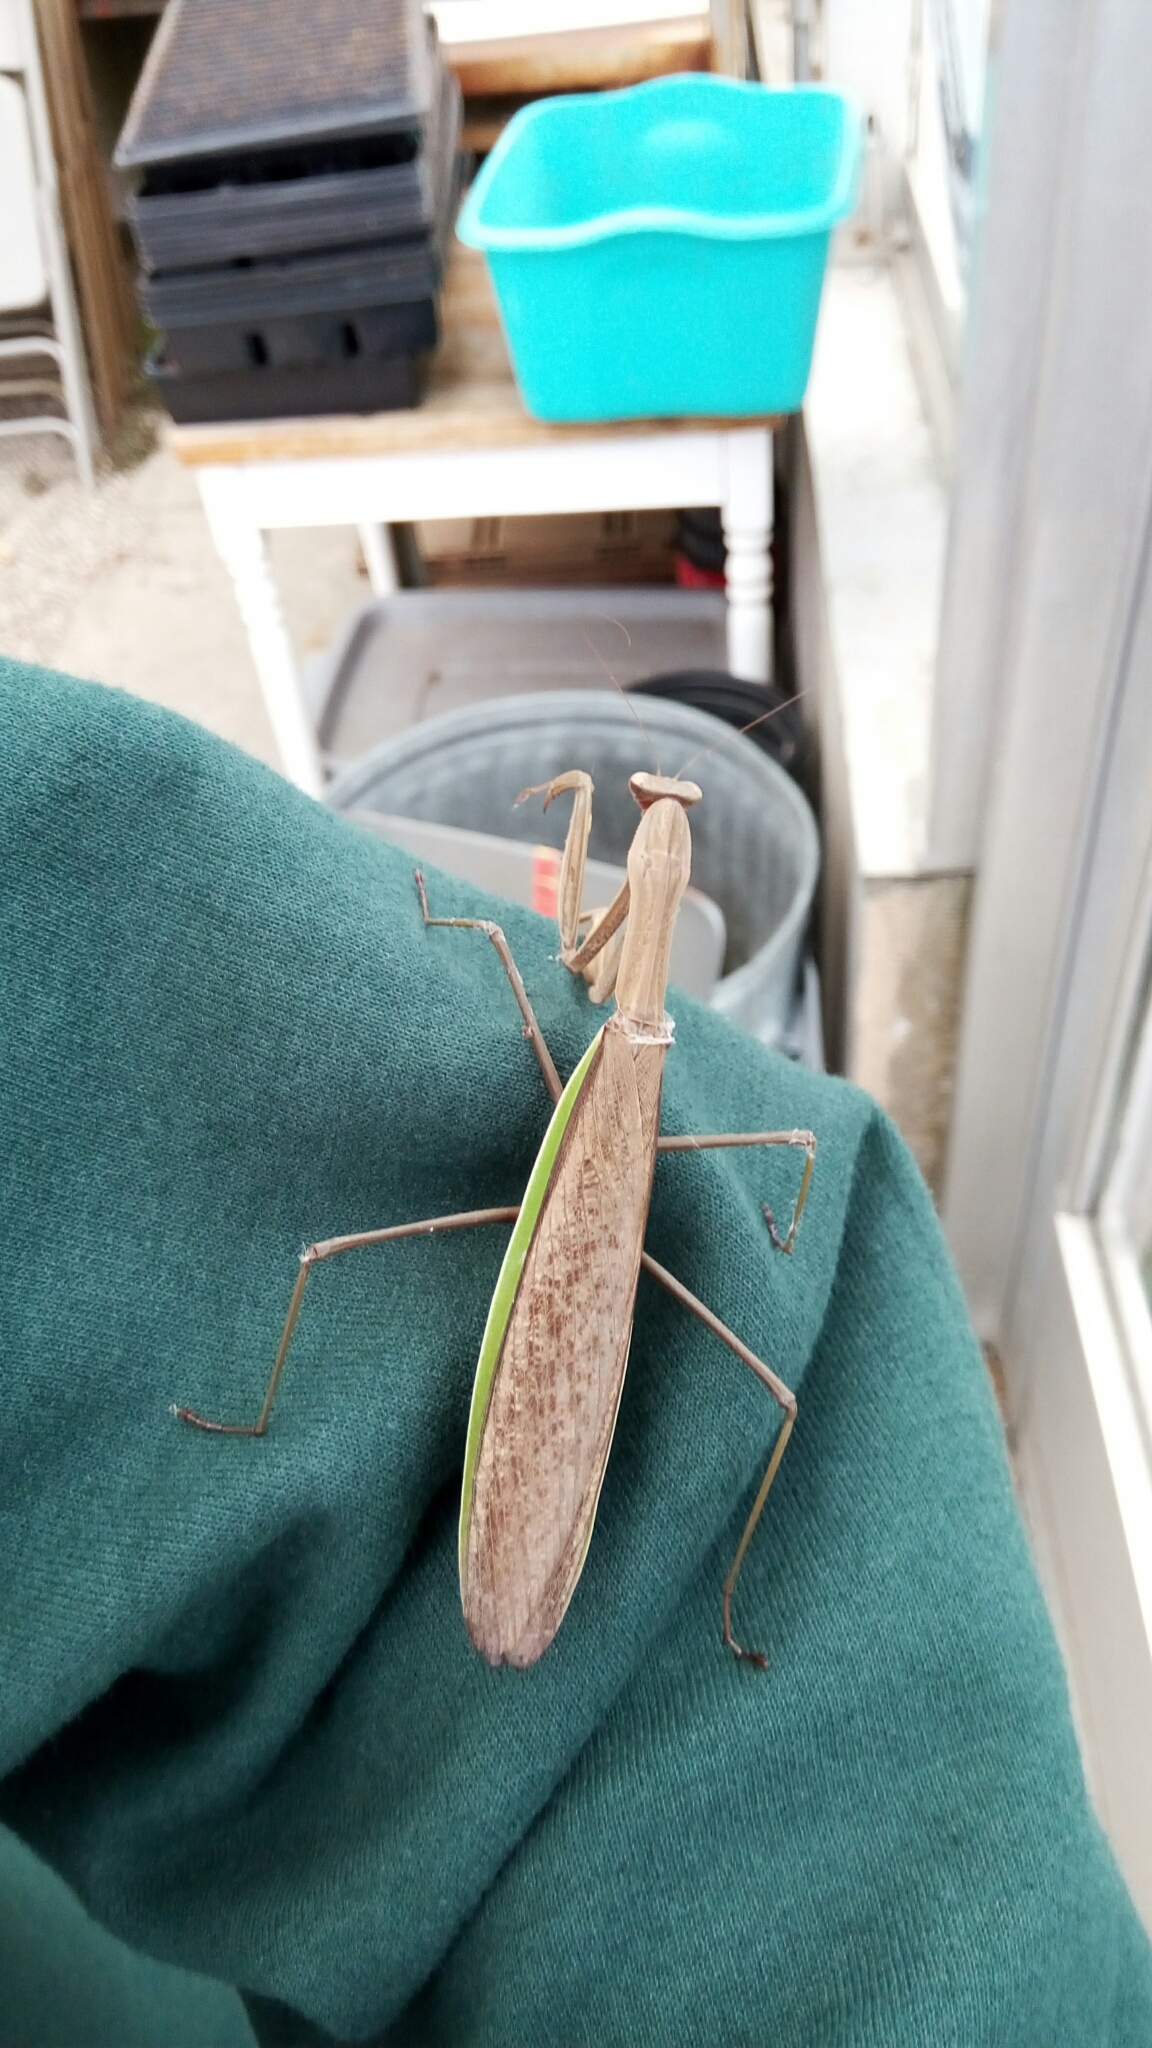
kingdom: Animalia
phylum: Arthropoda
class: Insecta
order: Mantodea
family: Mantidae
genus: Tenodera
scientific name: Tenodera sinensis
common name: Chinese mantis
